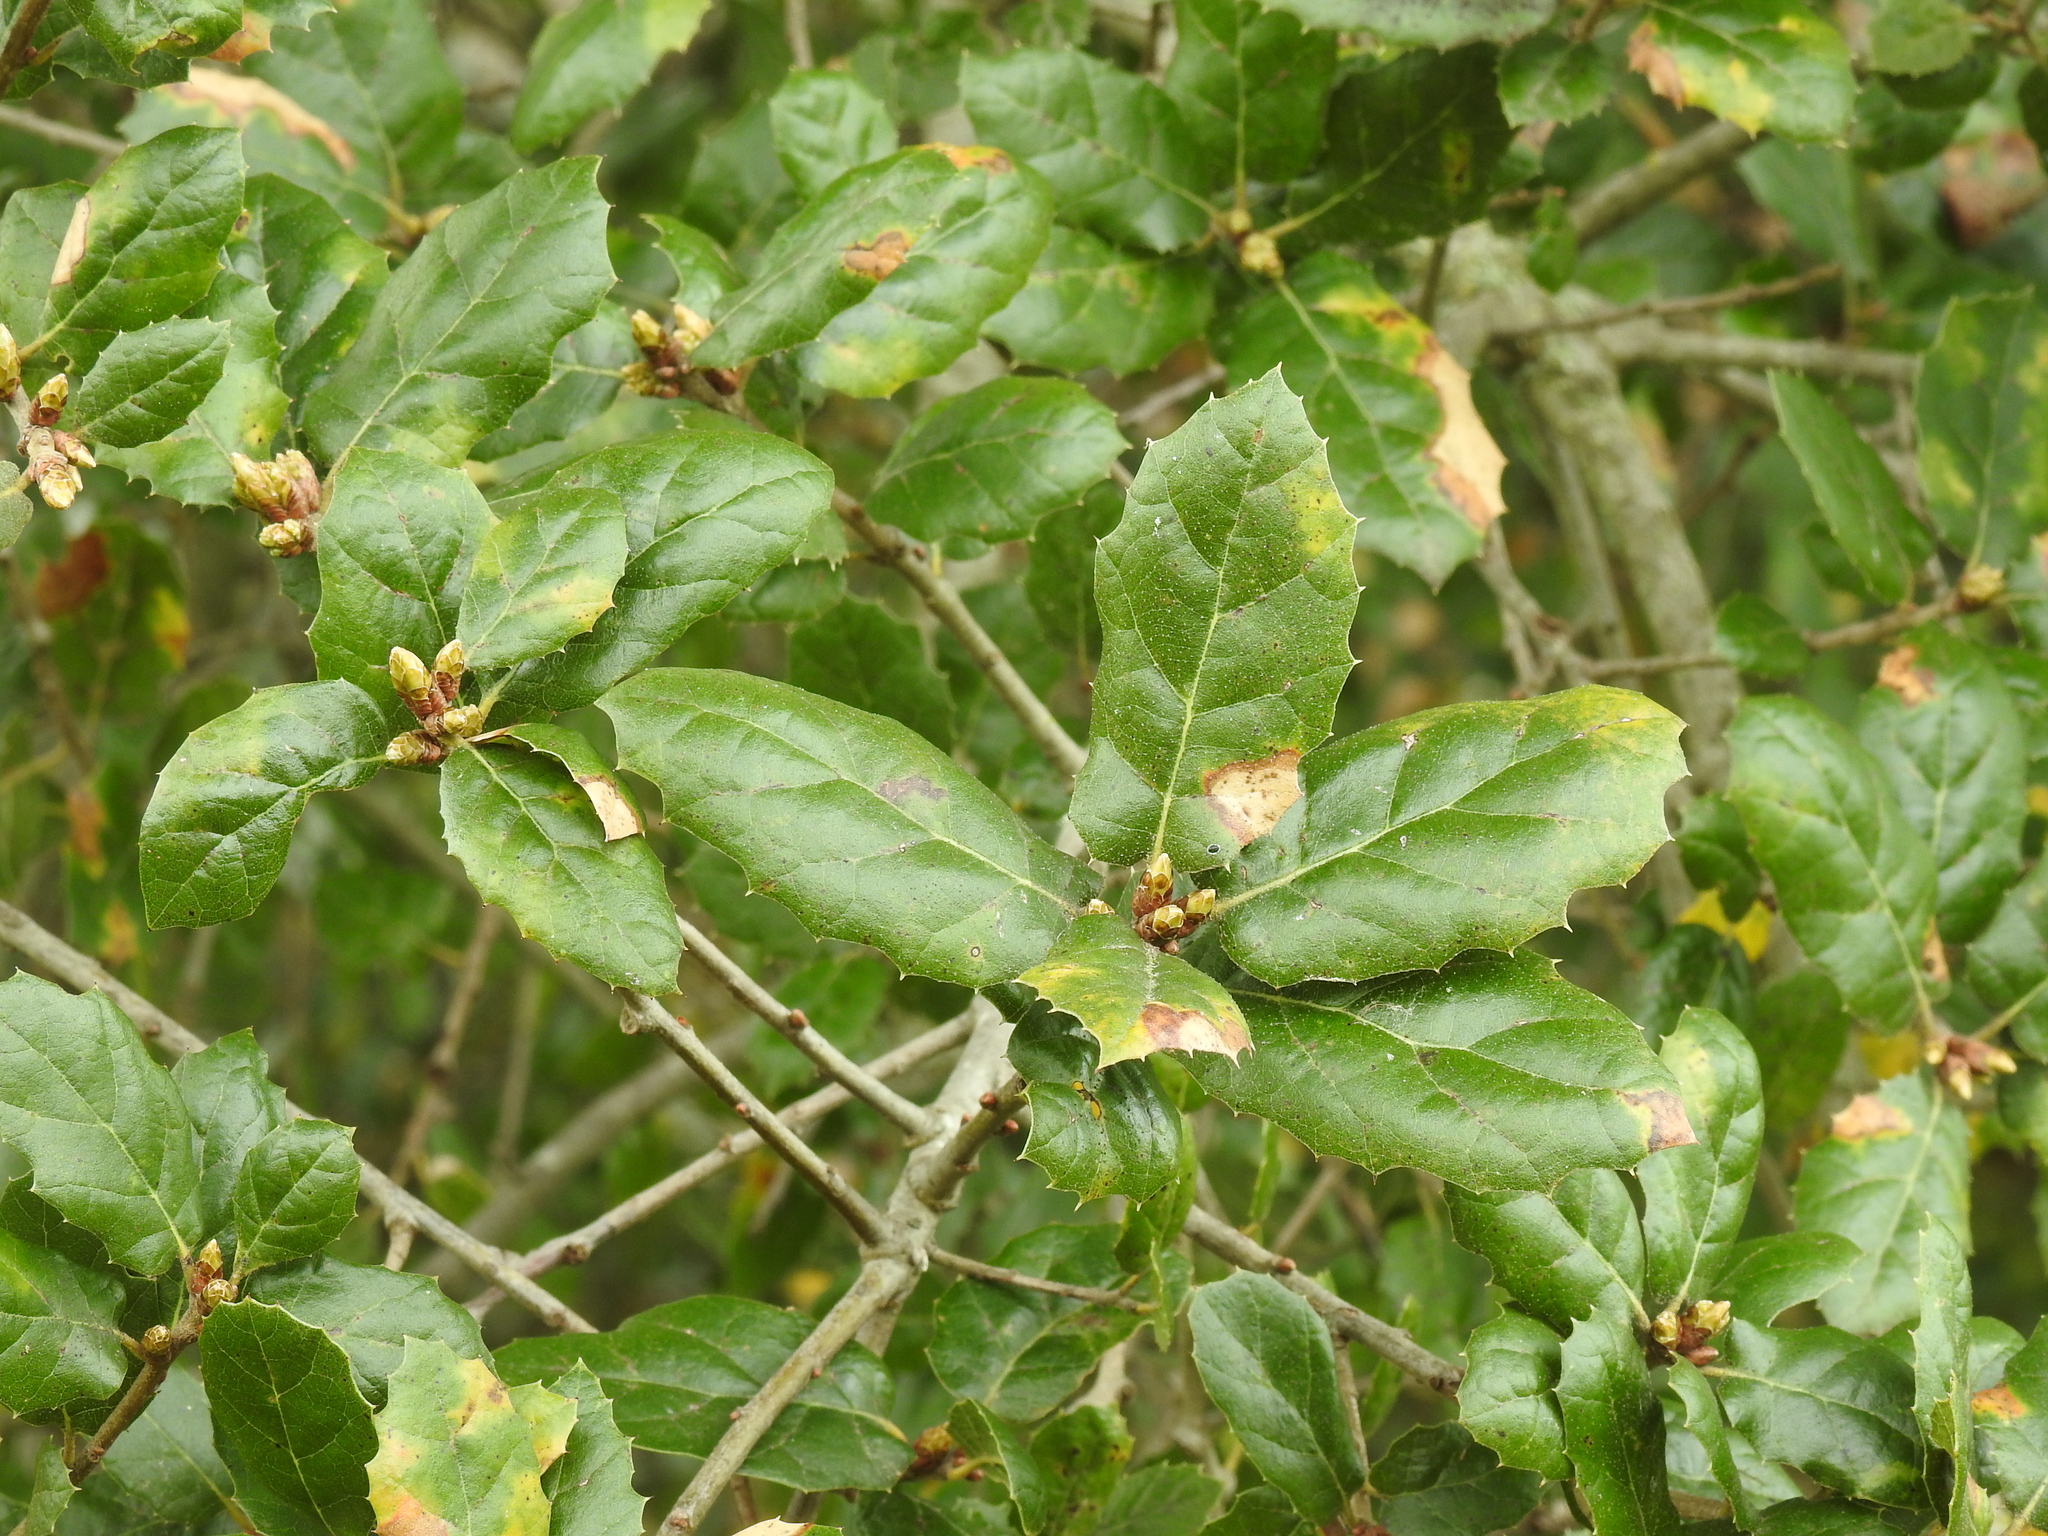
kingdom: Plantae
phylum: Tracheophyta
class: Magnoliopsida
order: Fagales
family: Fagaceae
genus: Quercus
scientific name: Quercus agrifolia
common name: California live oak
